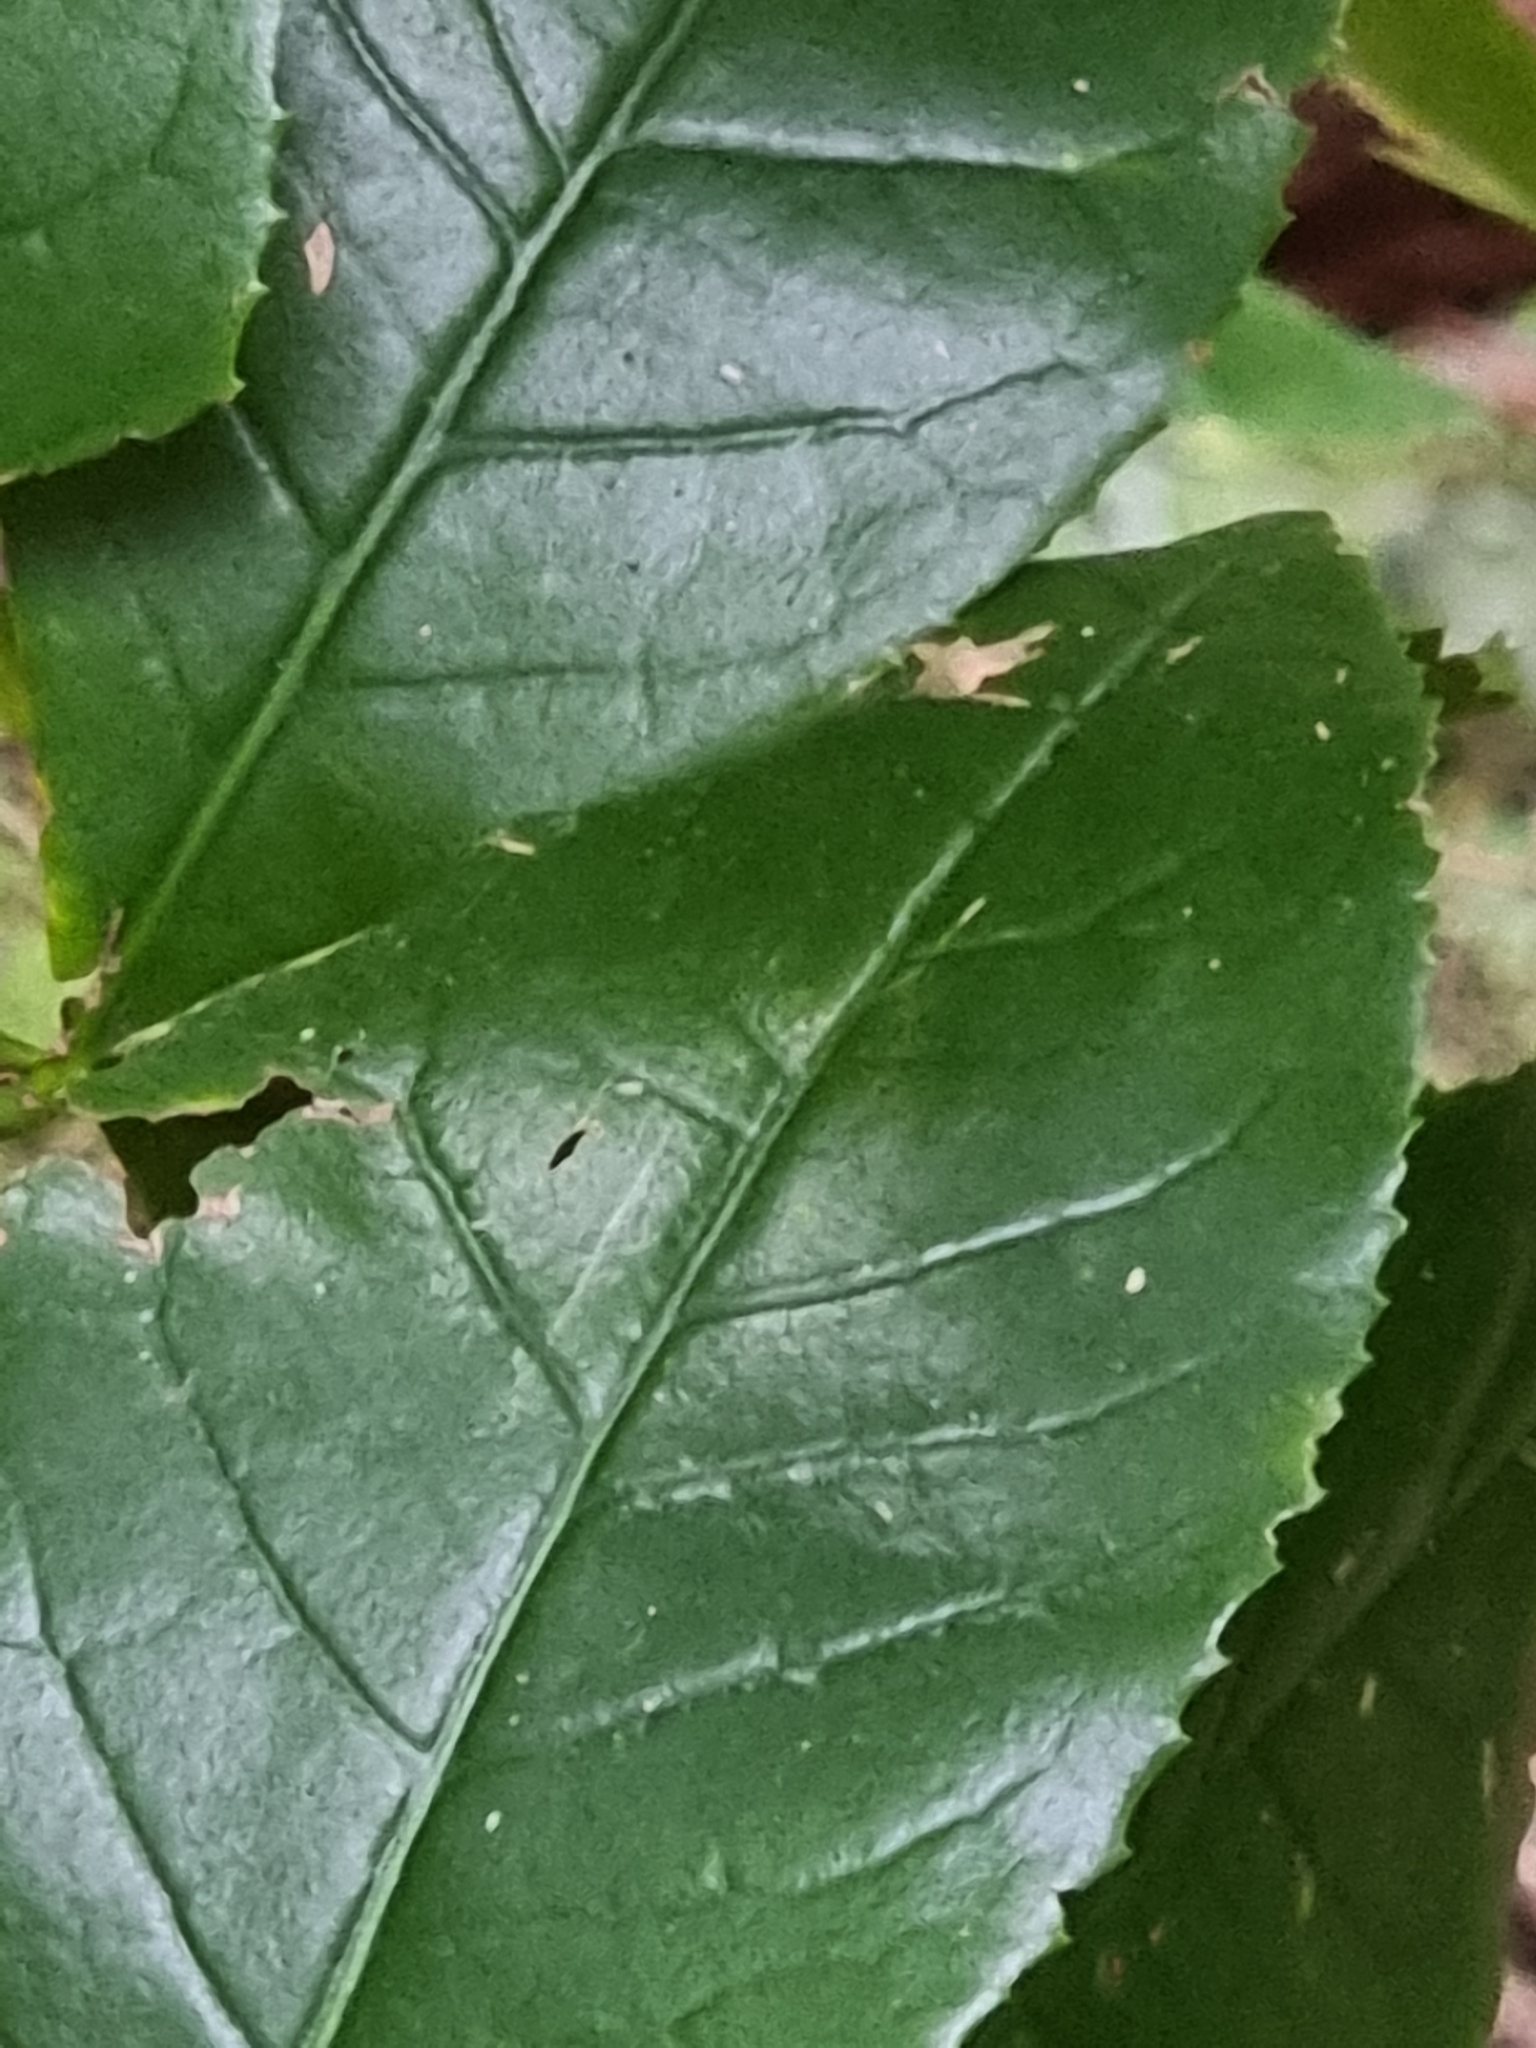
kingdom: Plantae
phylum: Tracheophyta
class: Magnoliopsida
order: Lamiales
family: Oleaceae
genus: Picconia
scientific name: Picconia excelsa
